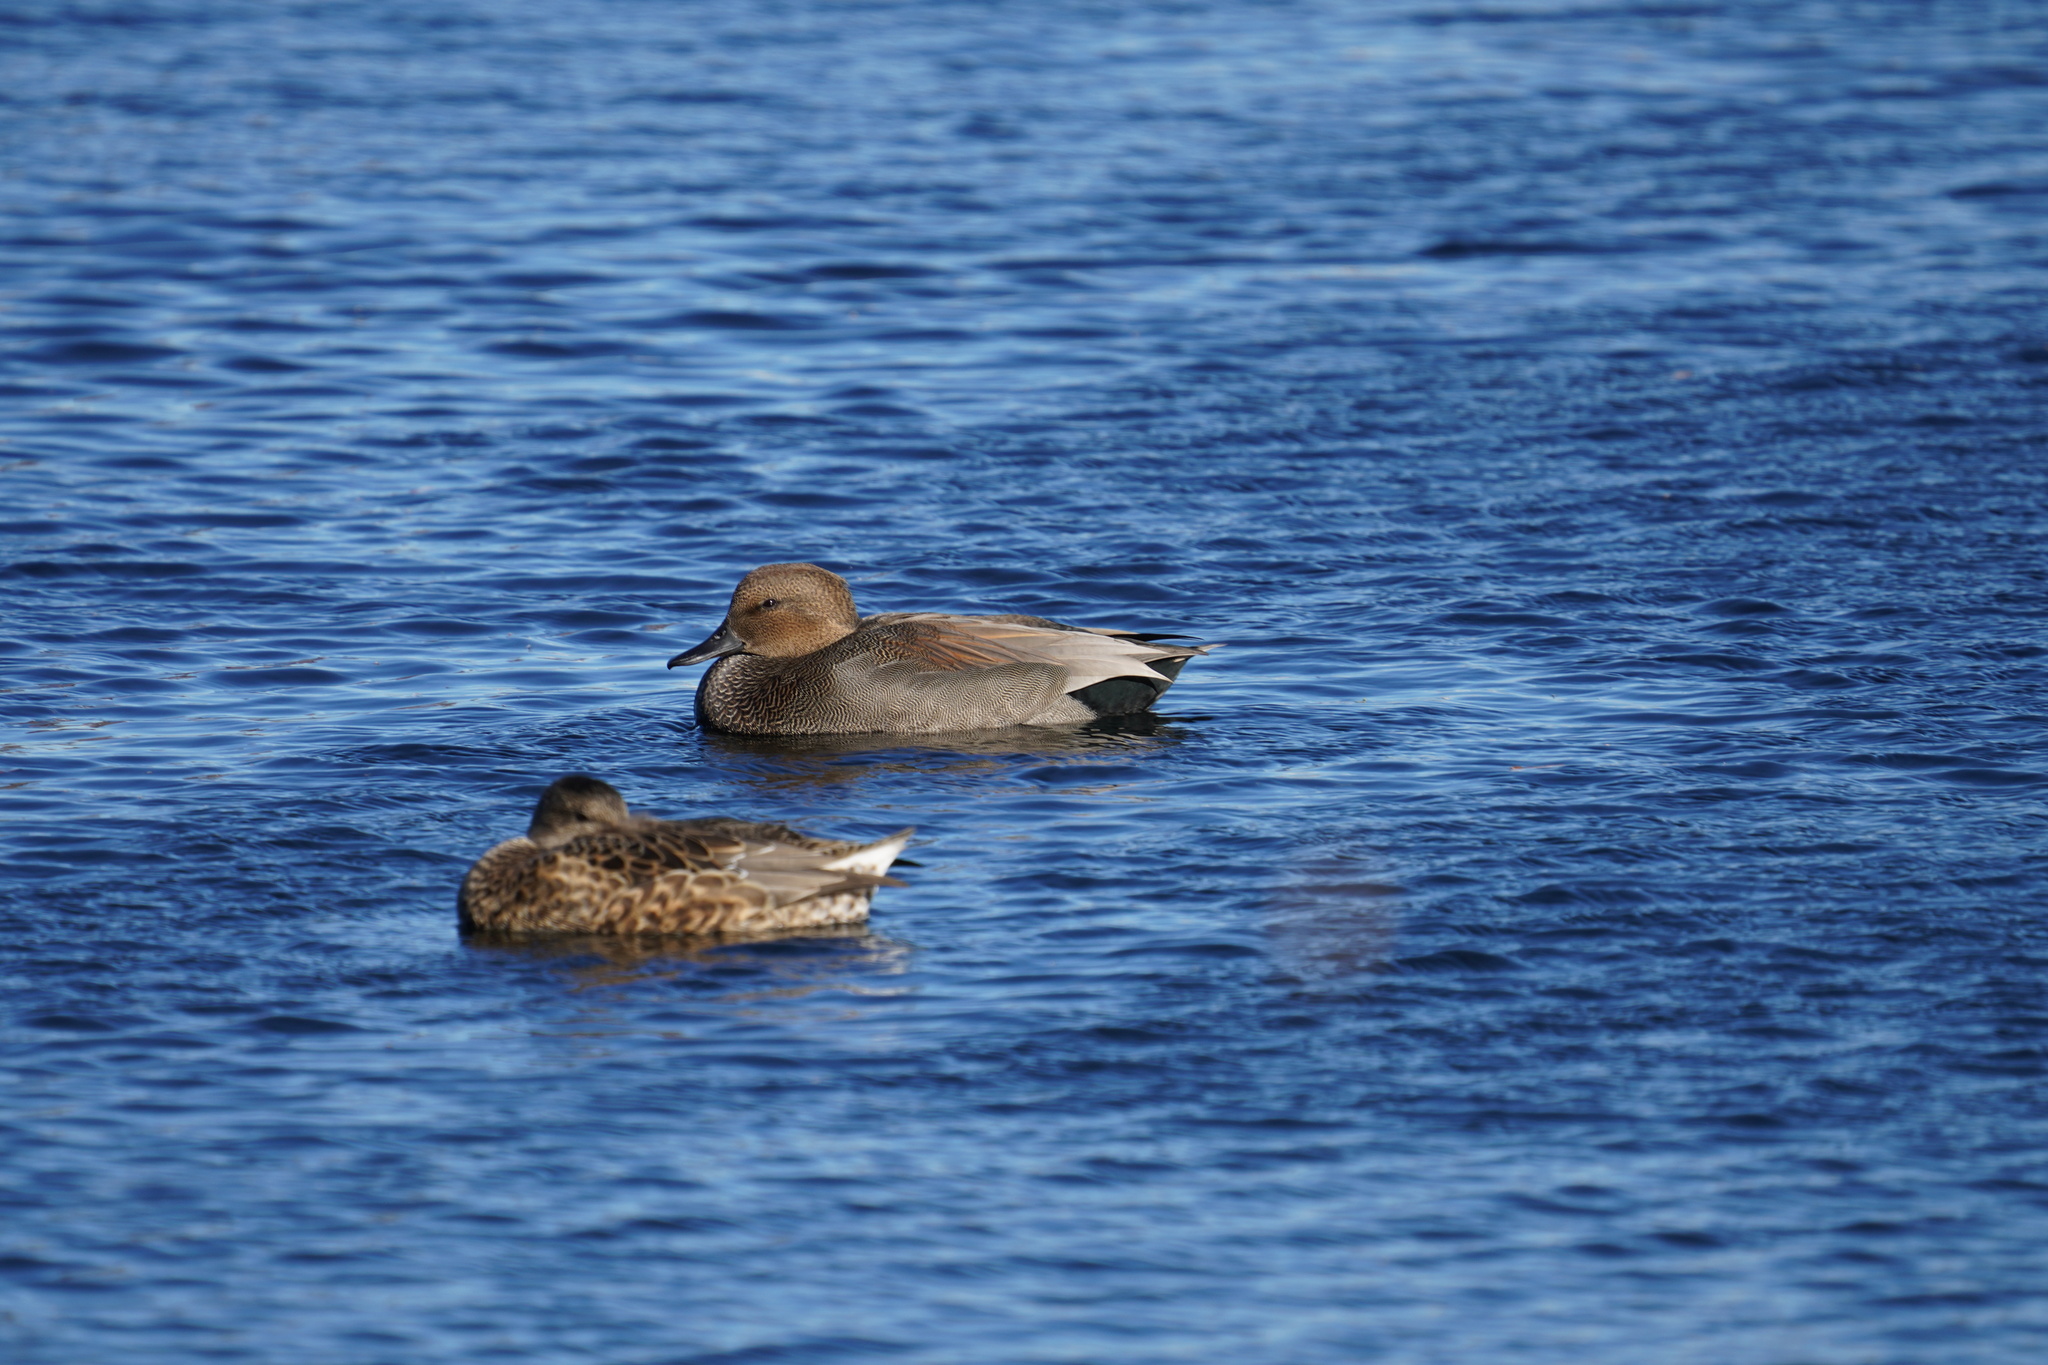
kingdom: Animalia
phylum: Chordata
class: Aves
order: Anseriformes
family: Anatidae
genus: Mareca
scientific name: Mareca strepera
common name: Gadwall
